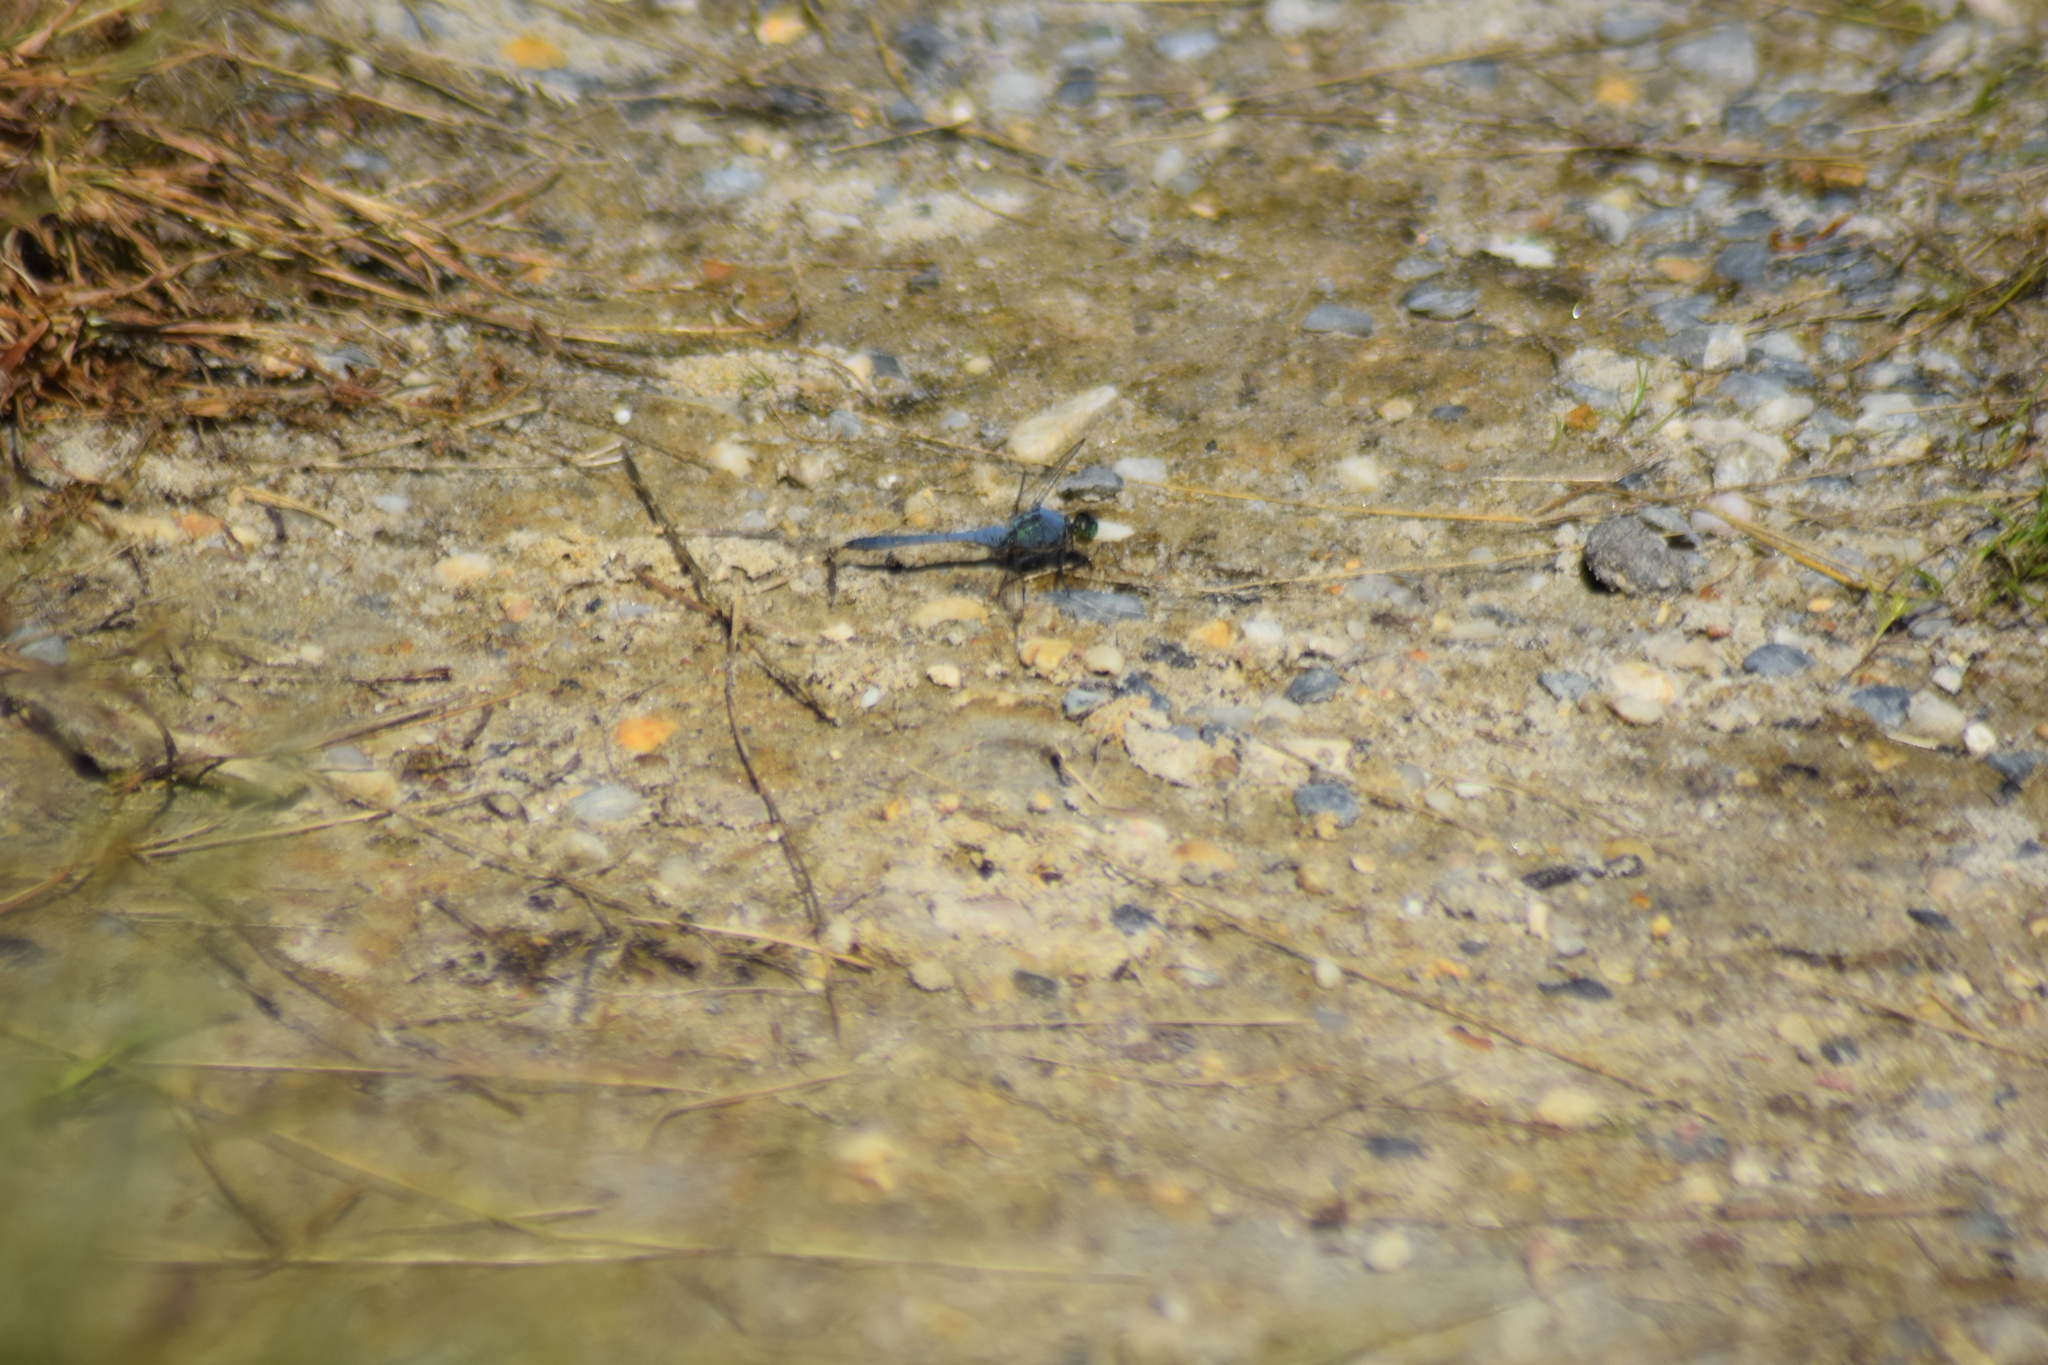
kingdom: Animalia
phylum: Arthropoda
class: Insecta
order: Odonata
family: Libellulidae
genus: Erythemis
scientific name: Erythemis simplicicollis
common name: Eastern pondhawk
